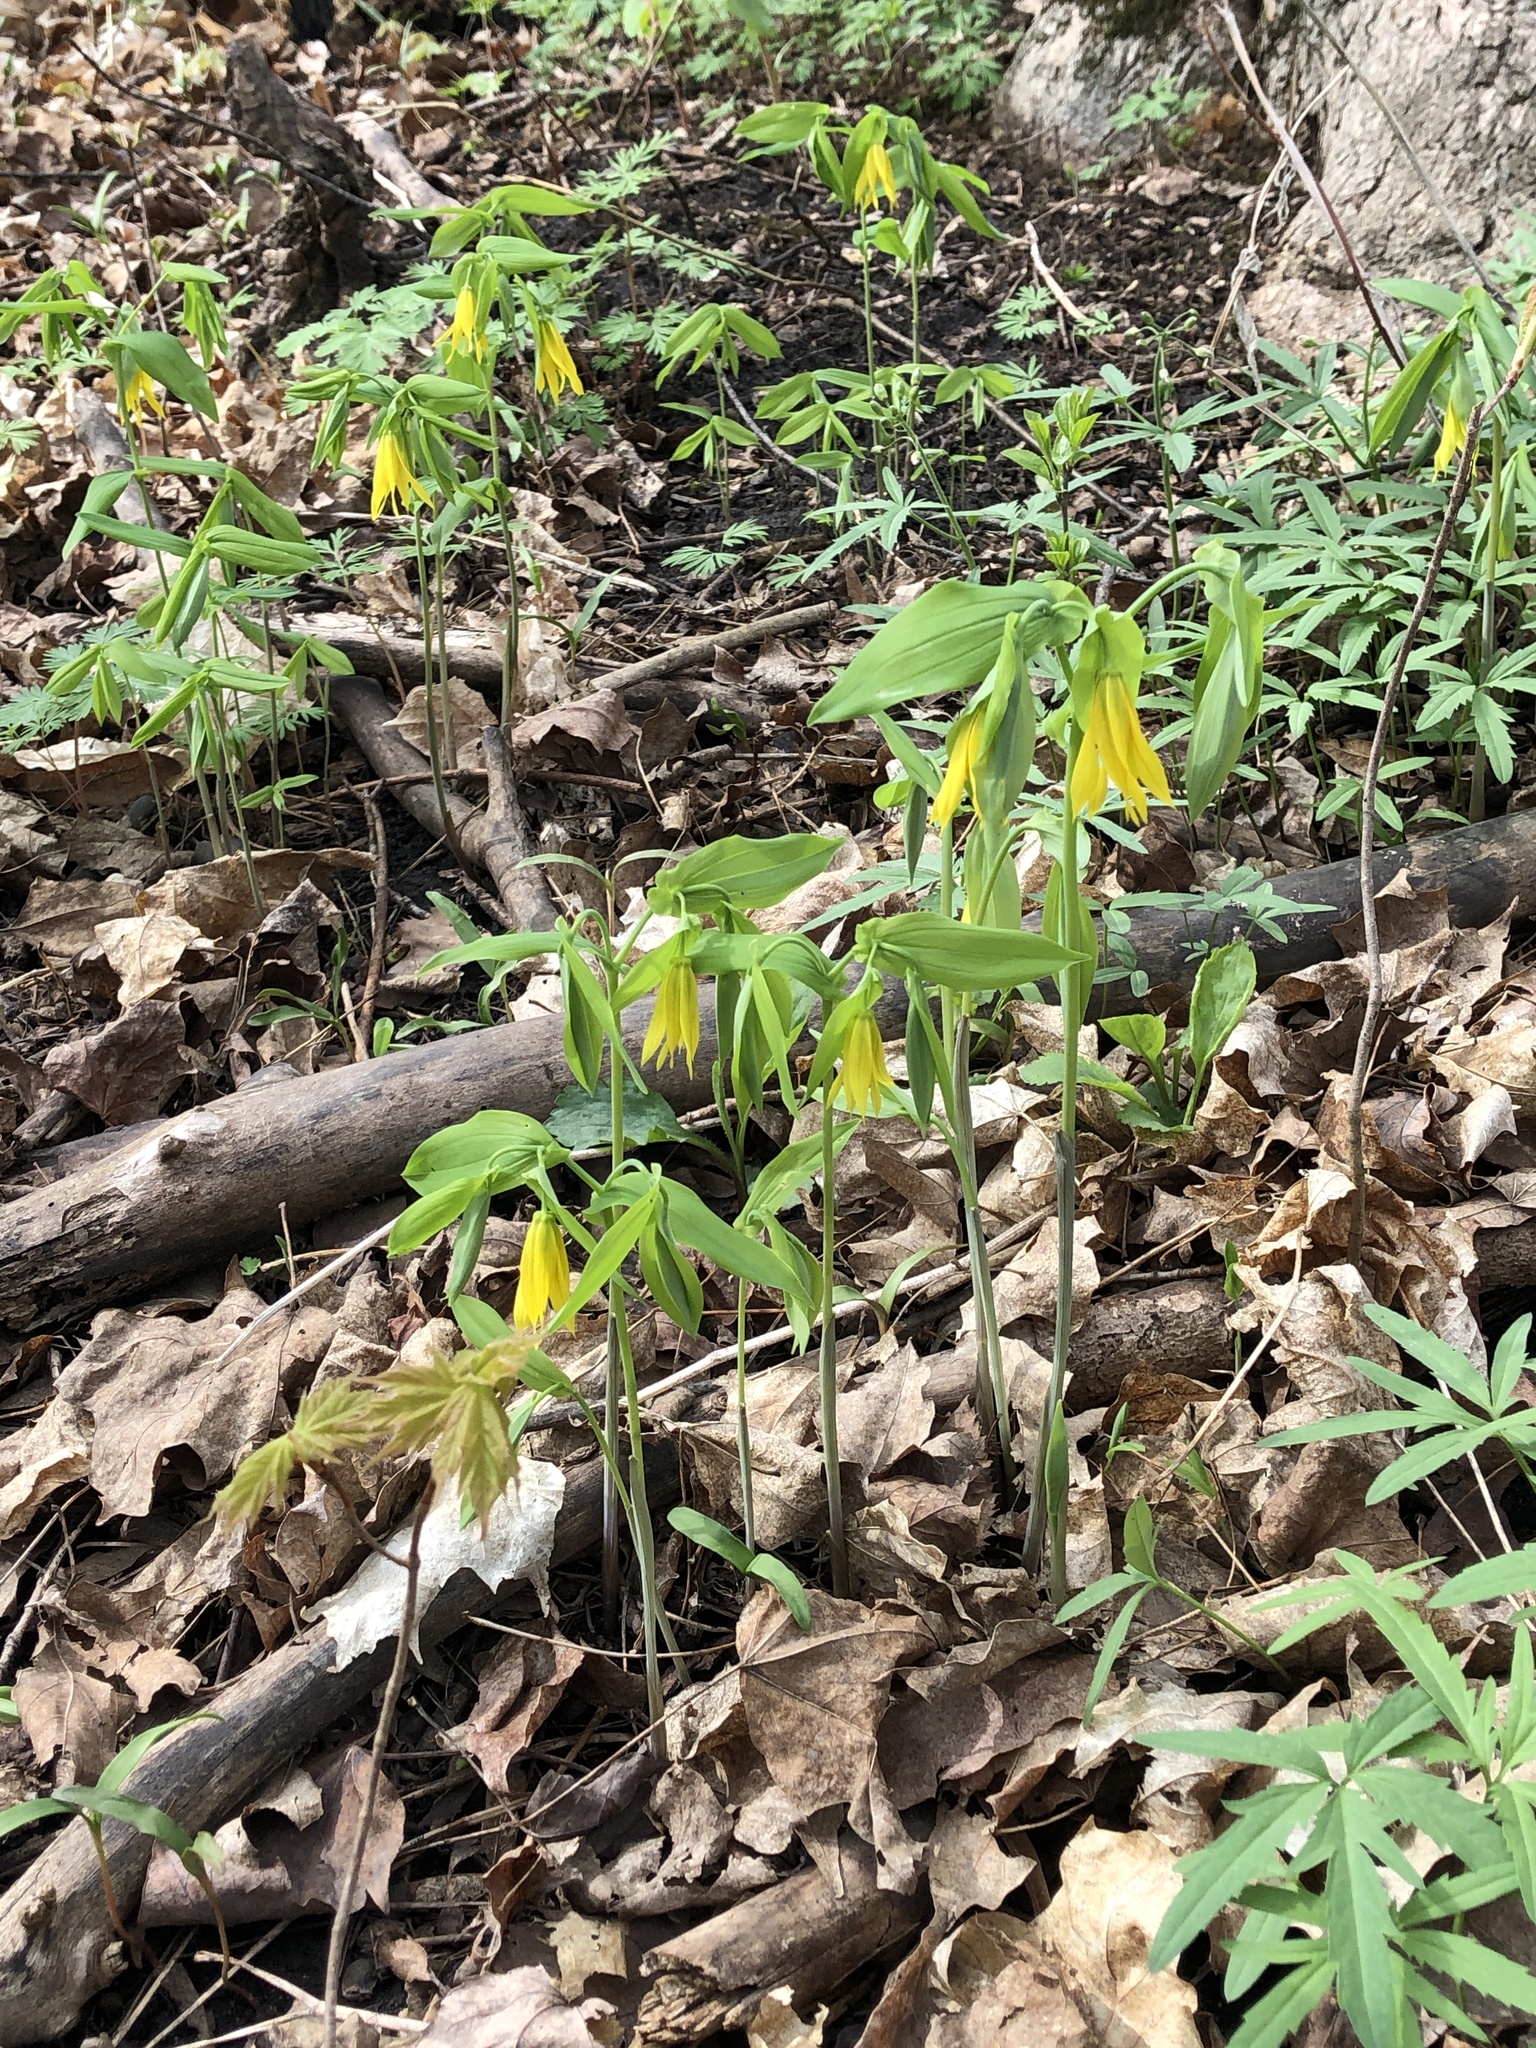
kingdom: Plantae
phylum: Tracheophyta
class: Liliopsida
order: Liliales
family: Colchicaceae
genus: Uvularia
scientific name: Uvularia grandiflora
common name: Bellwort
